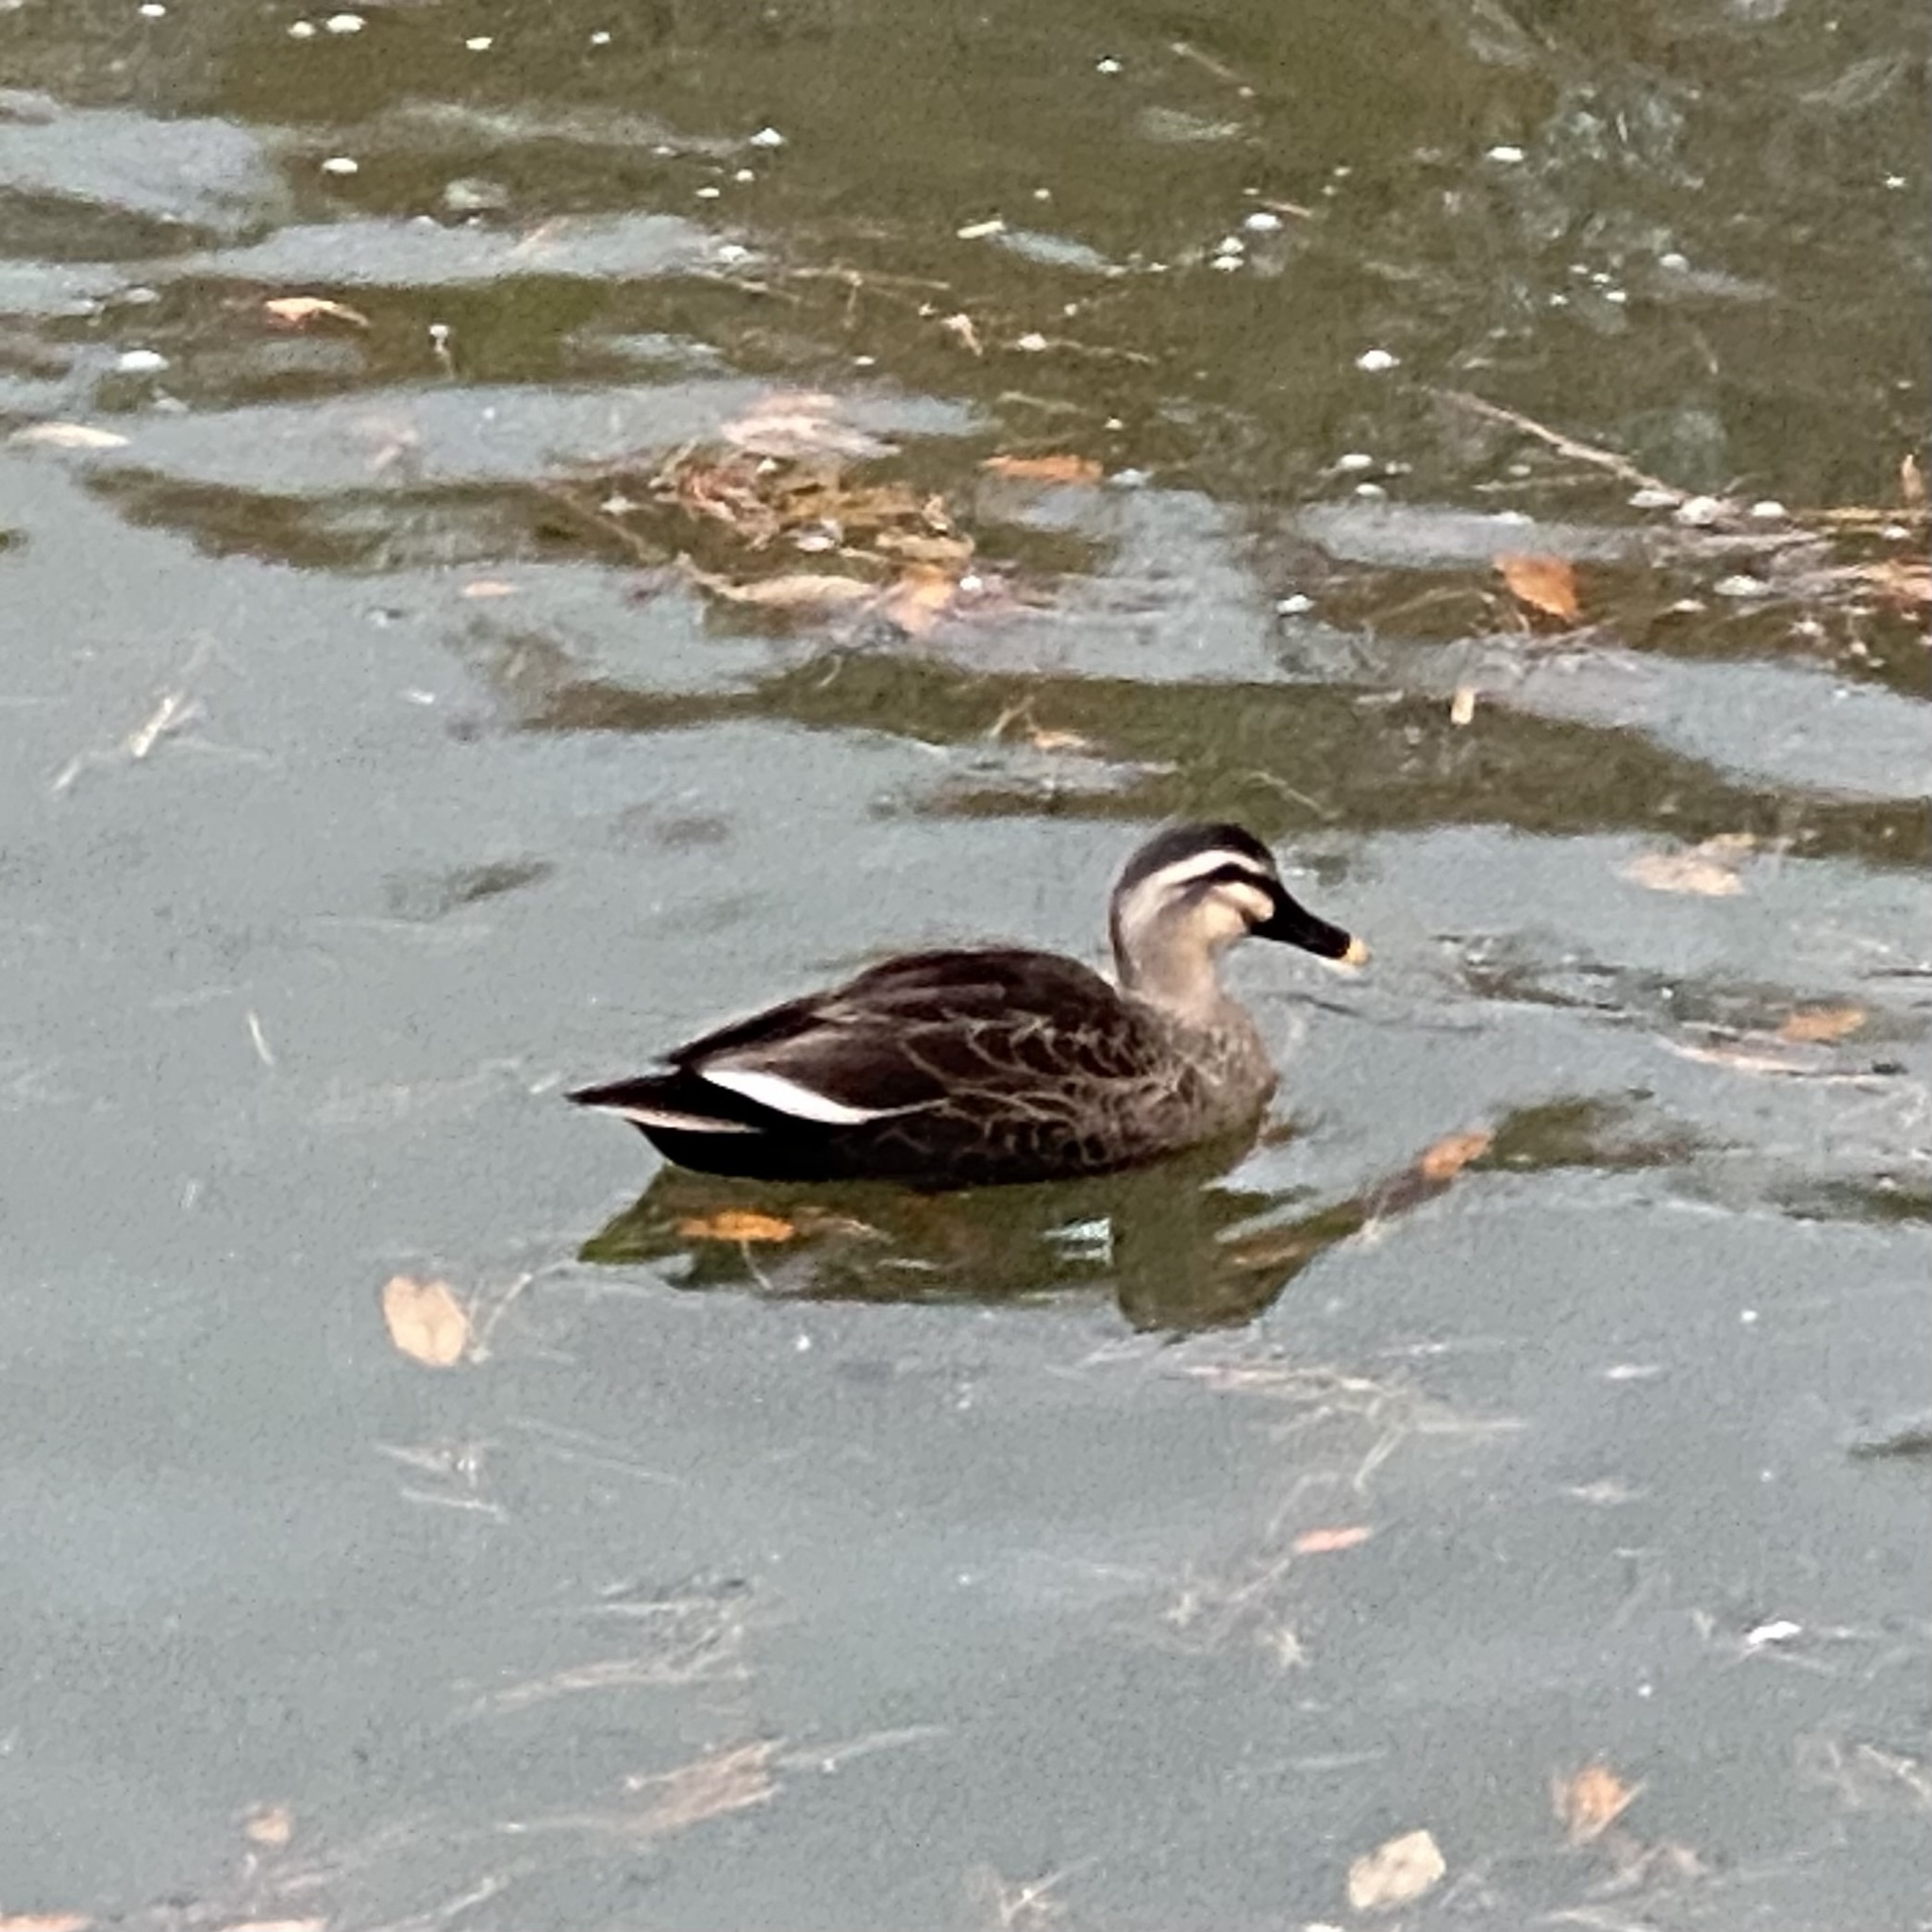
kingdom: Animalia
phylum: Chordata
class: Aves
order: Anseriformes
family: Anatidae
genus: Anas
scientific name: Anas zonorhyncha
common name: Eastern spot-billed duck
